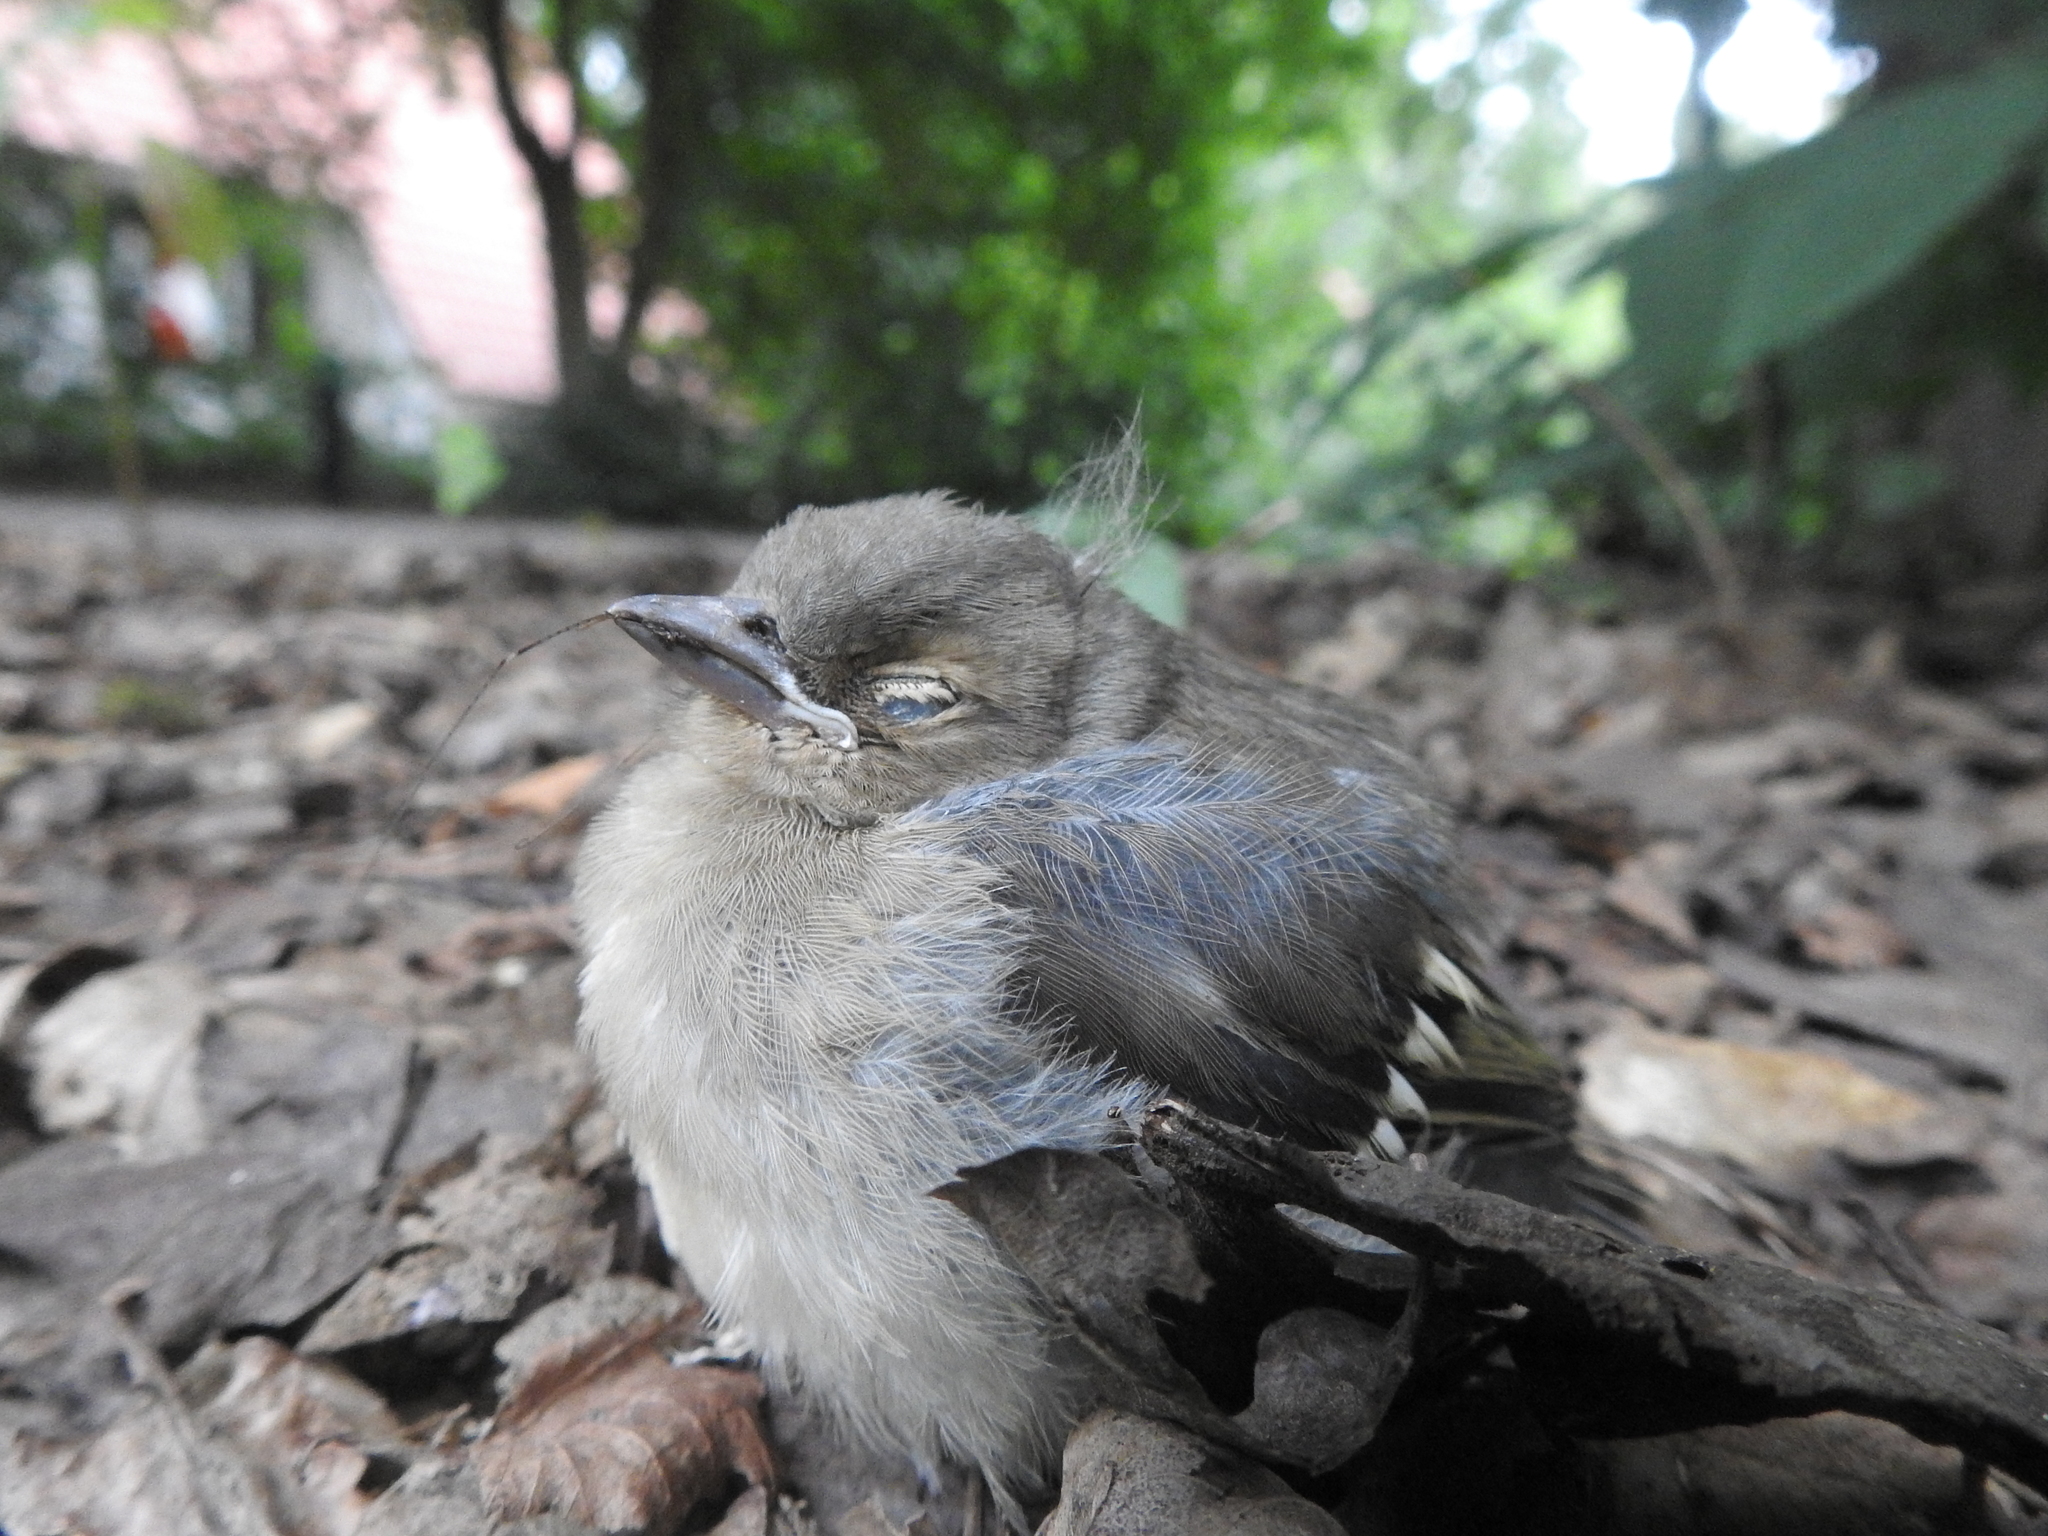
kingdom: Animalia
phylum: Chordata
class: Aves
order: Passeriformes
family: Fringillidae
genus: Fringilla
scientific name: Fringilla coelebs
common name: Common chaffinch
